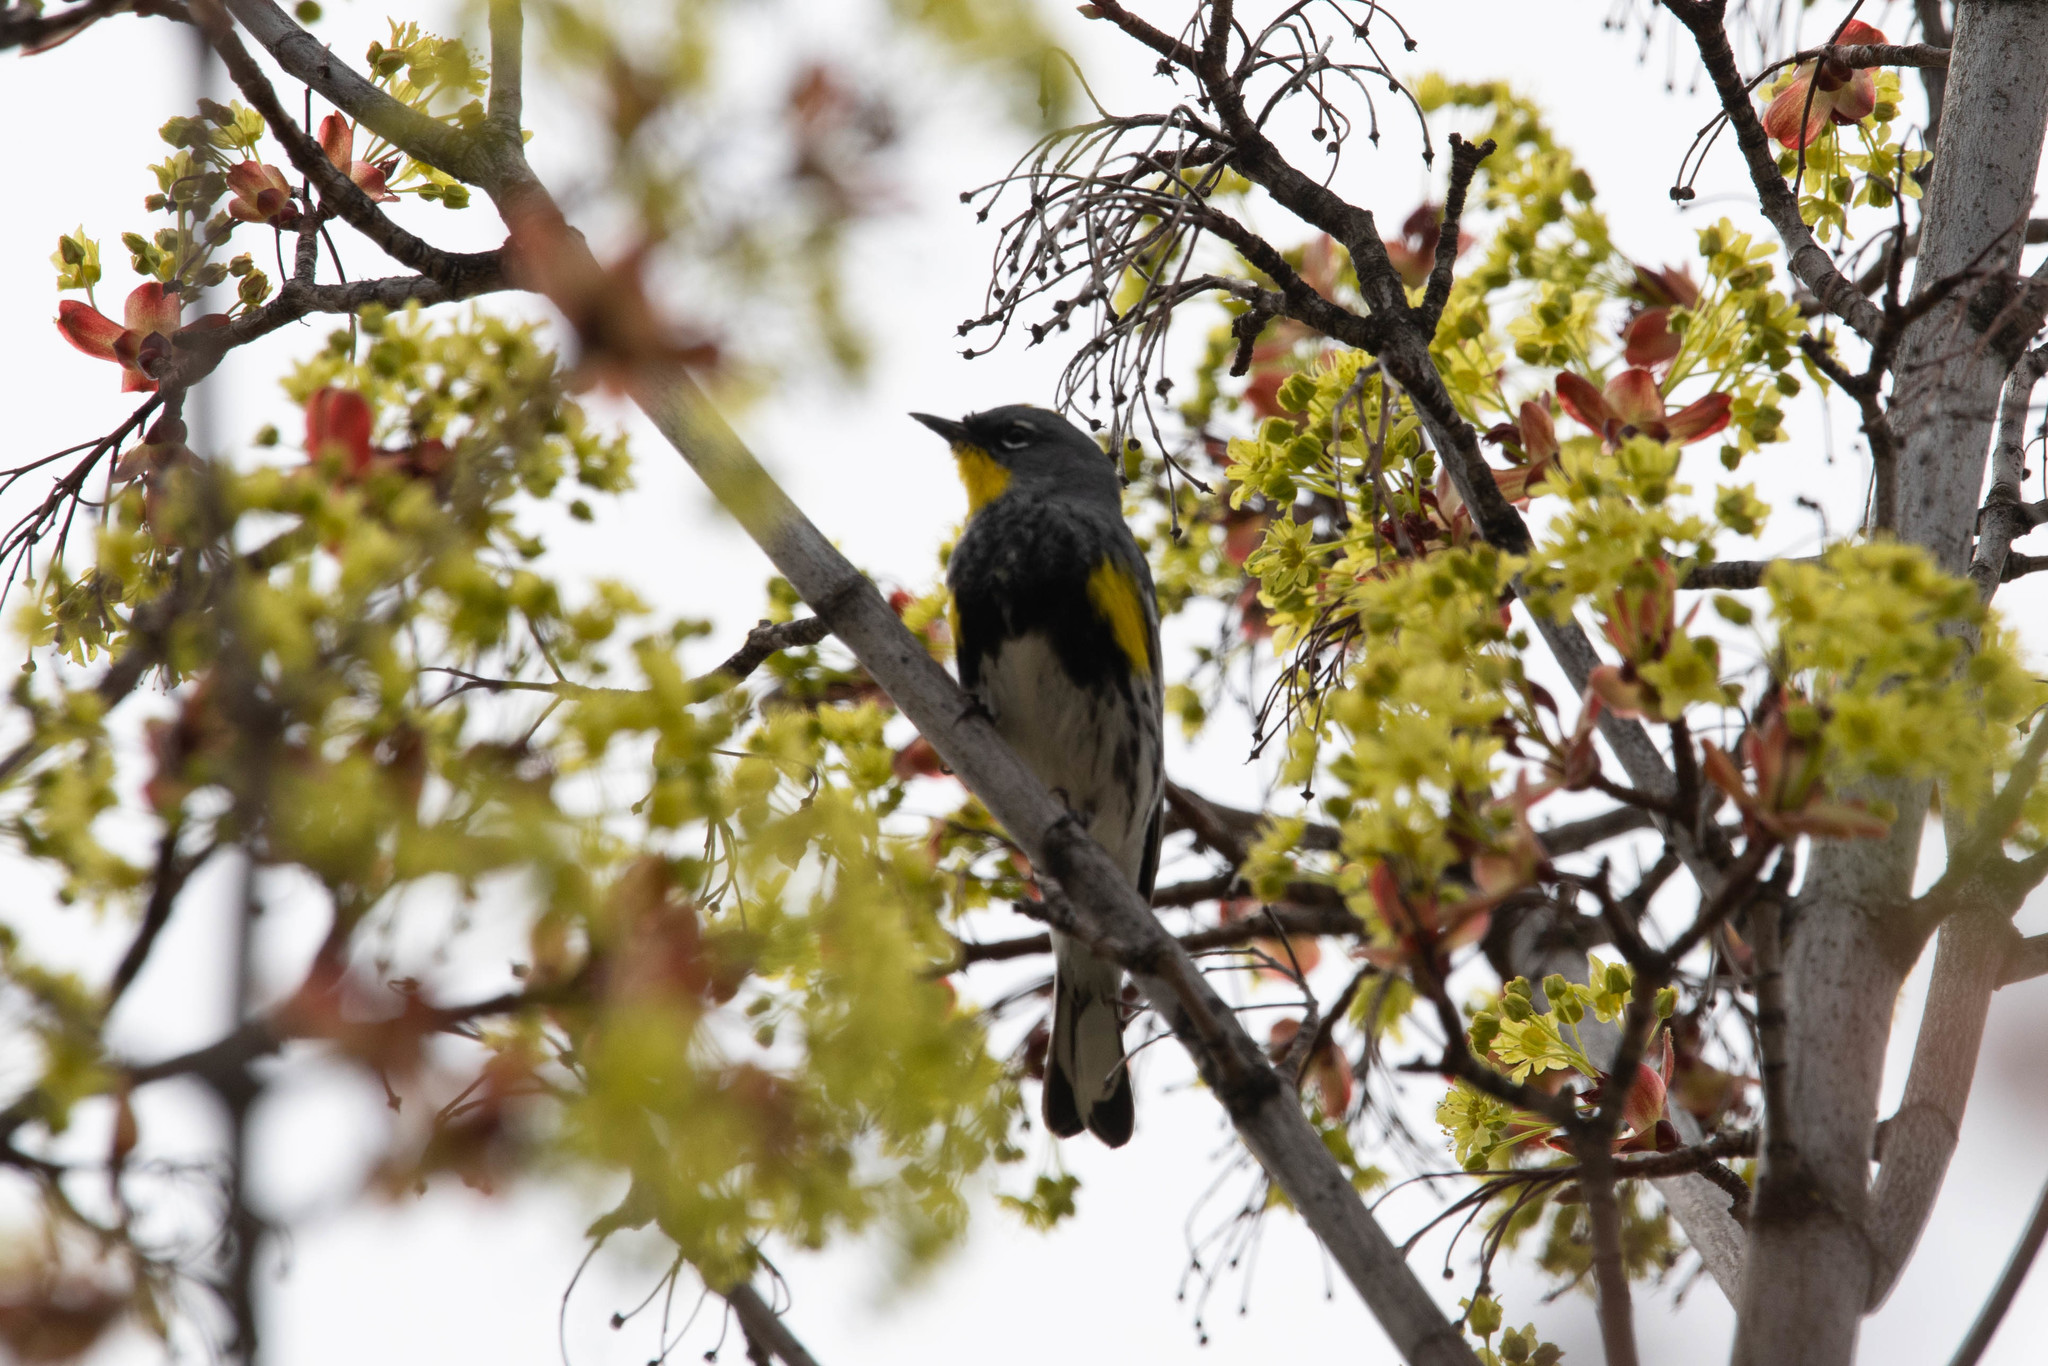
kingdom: Animalia
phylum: Chordata
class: Aves
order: Passeriformes
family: Parulidae
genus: Setophaga
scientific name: Setophaga auduboni
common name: Audubon's warbler
